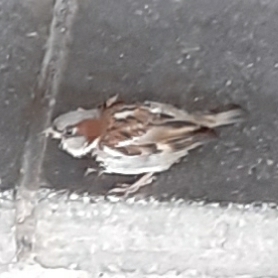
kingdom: Animalia
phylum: Chordata
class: Aves
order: Passeriformes
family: Passeridae
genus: Passer
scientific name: Passer domesticus
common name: House sparrow
